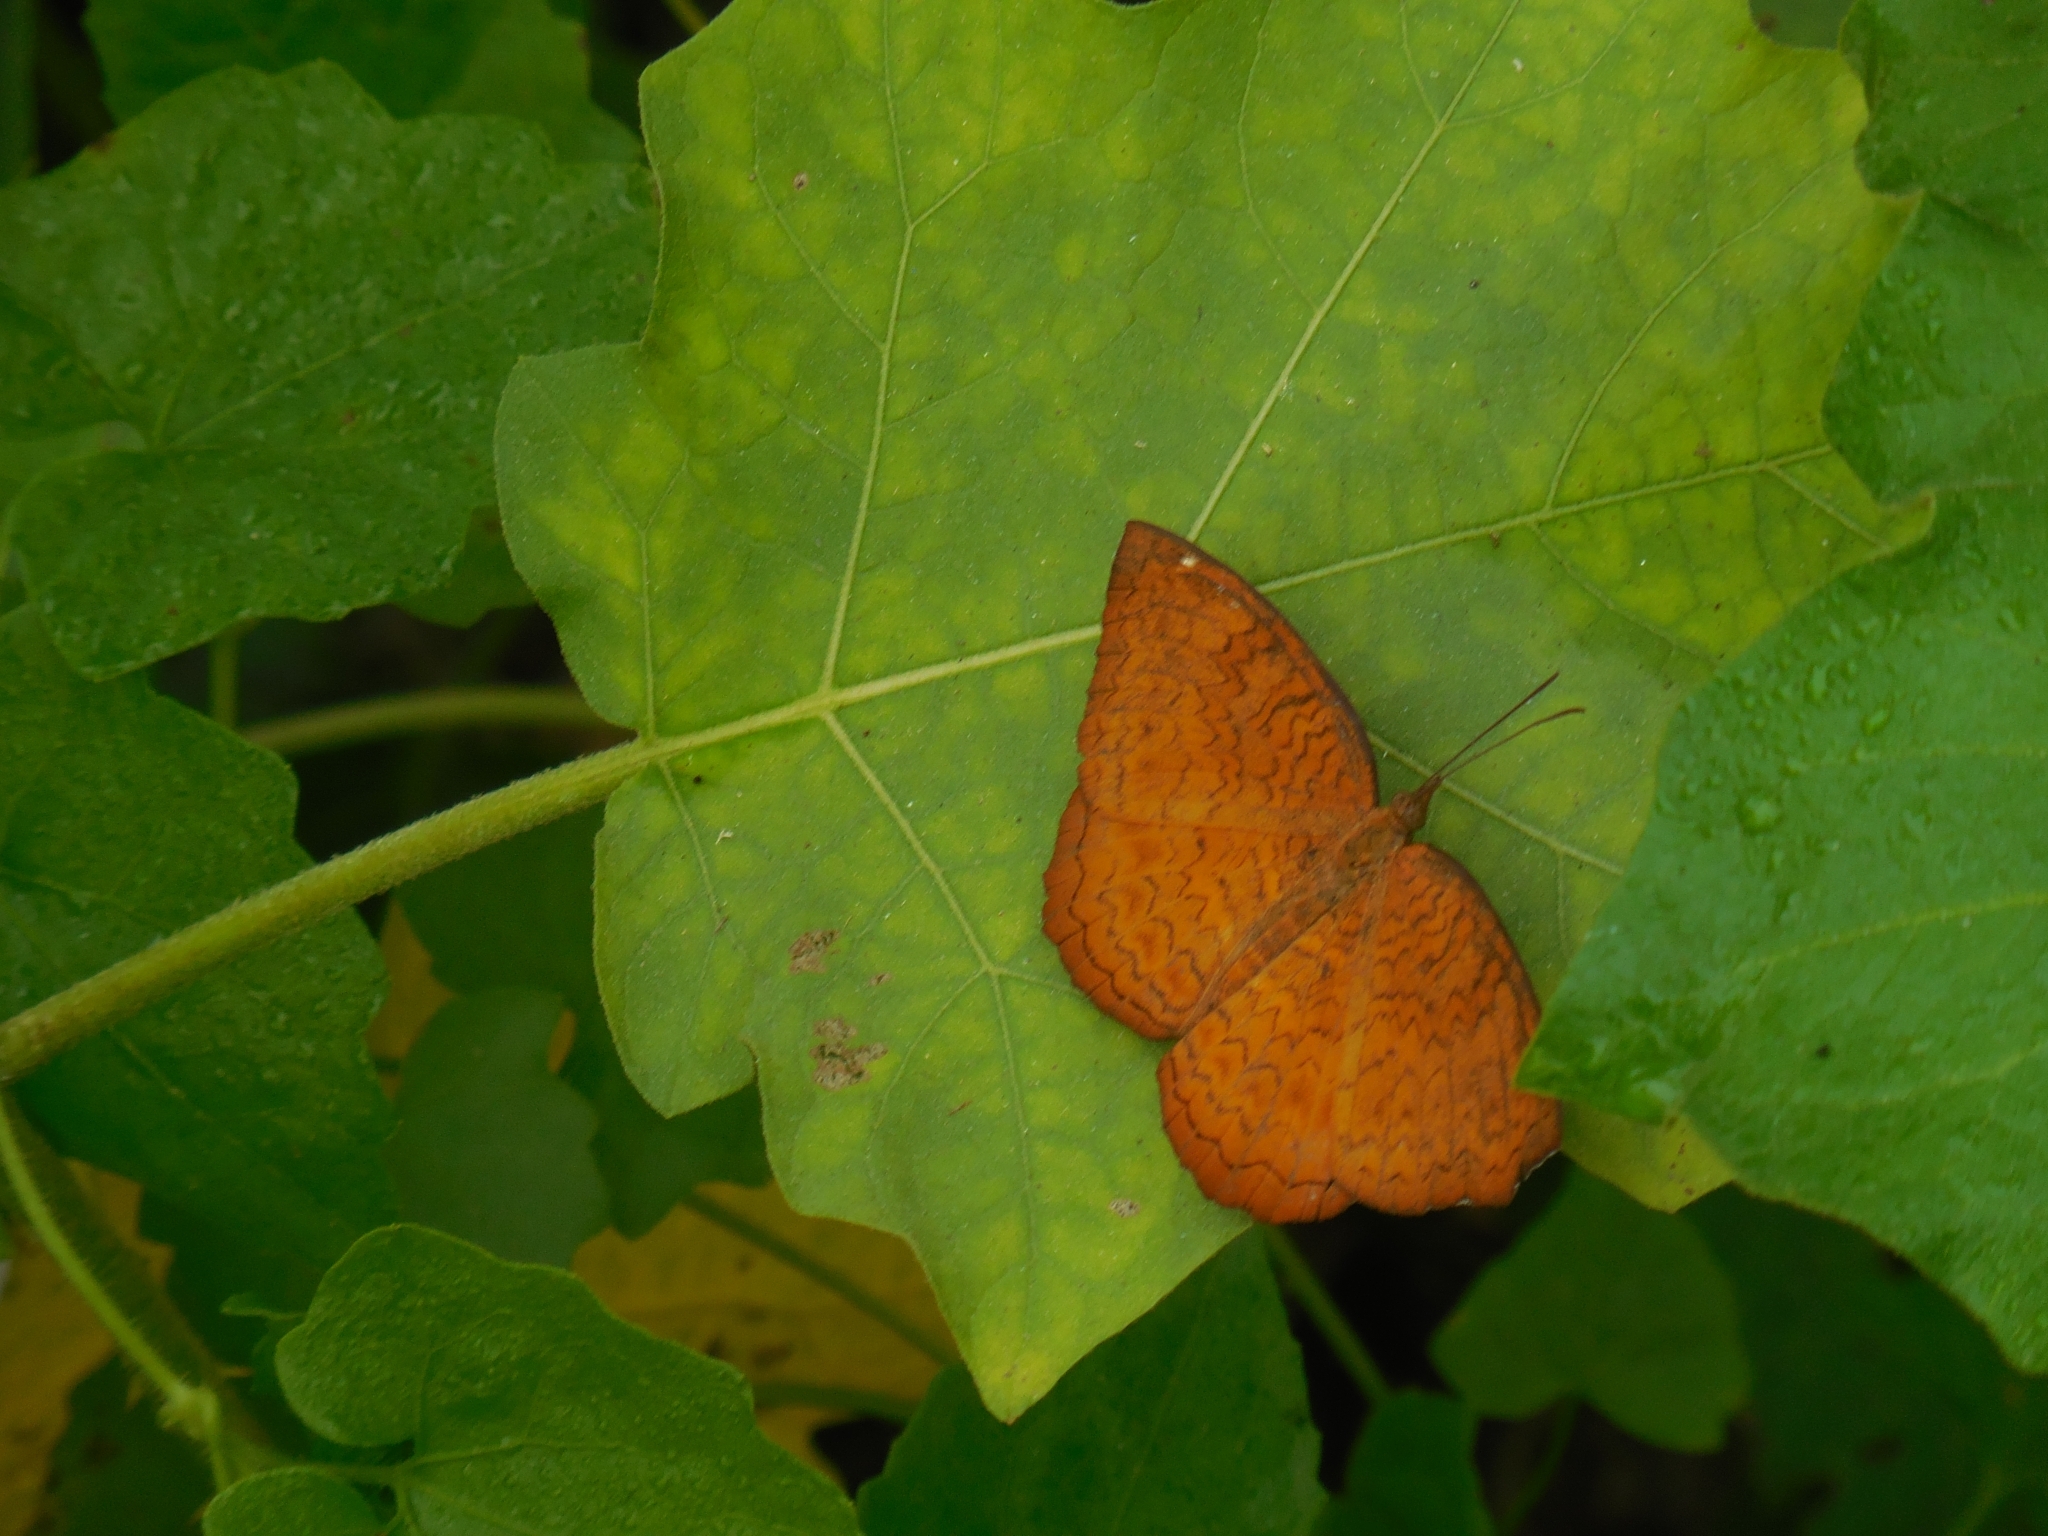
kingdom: Animalia
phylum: Arthropoda
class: Insecta
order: Lepidoptera
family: Nymphalidae
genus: Ariadne
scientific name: Ariadne merione
